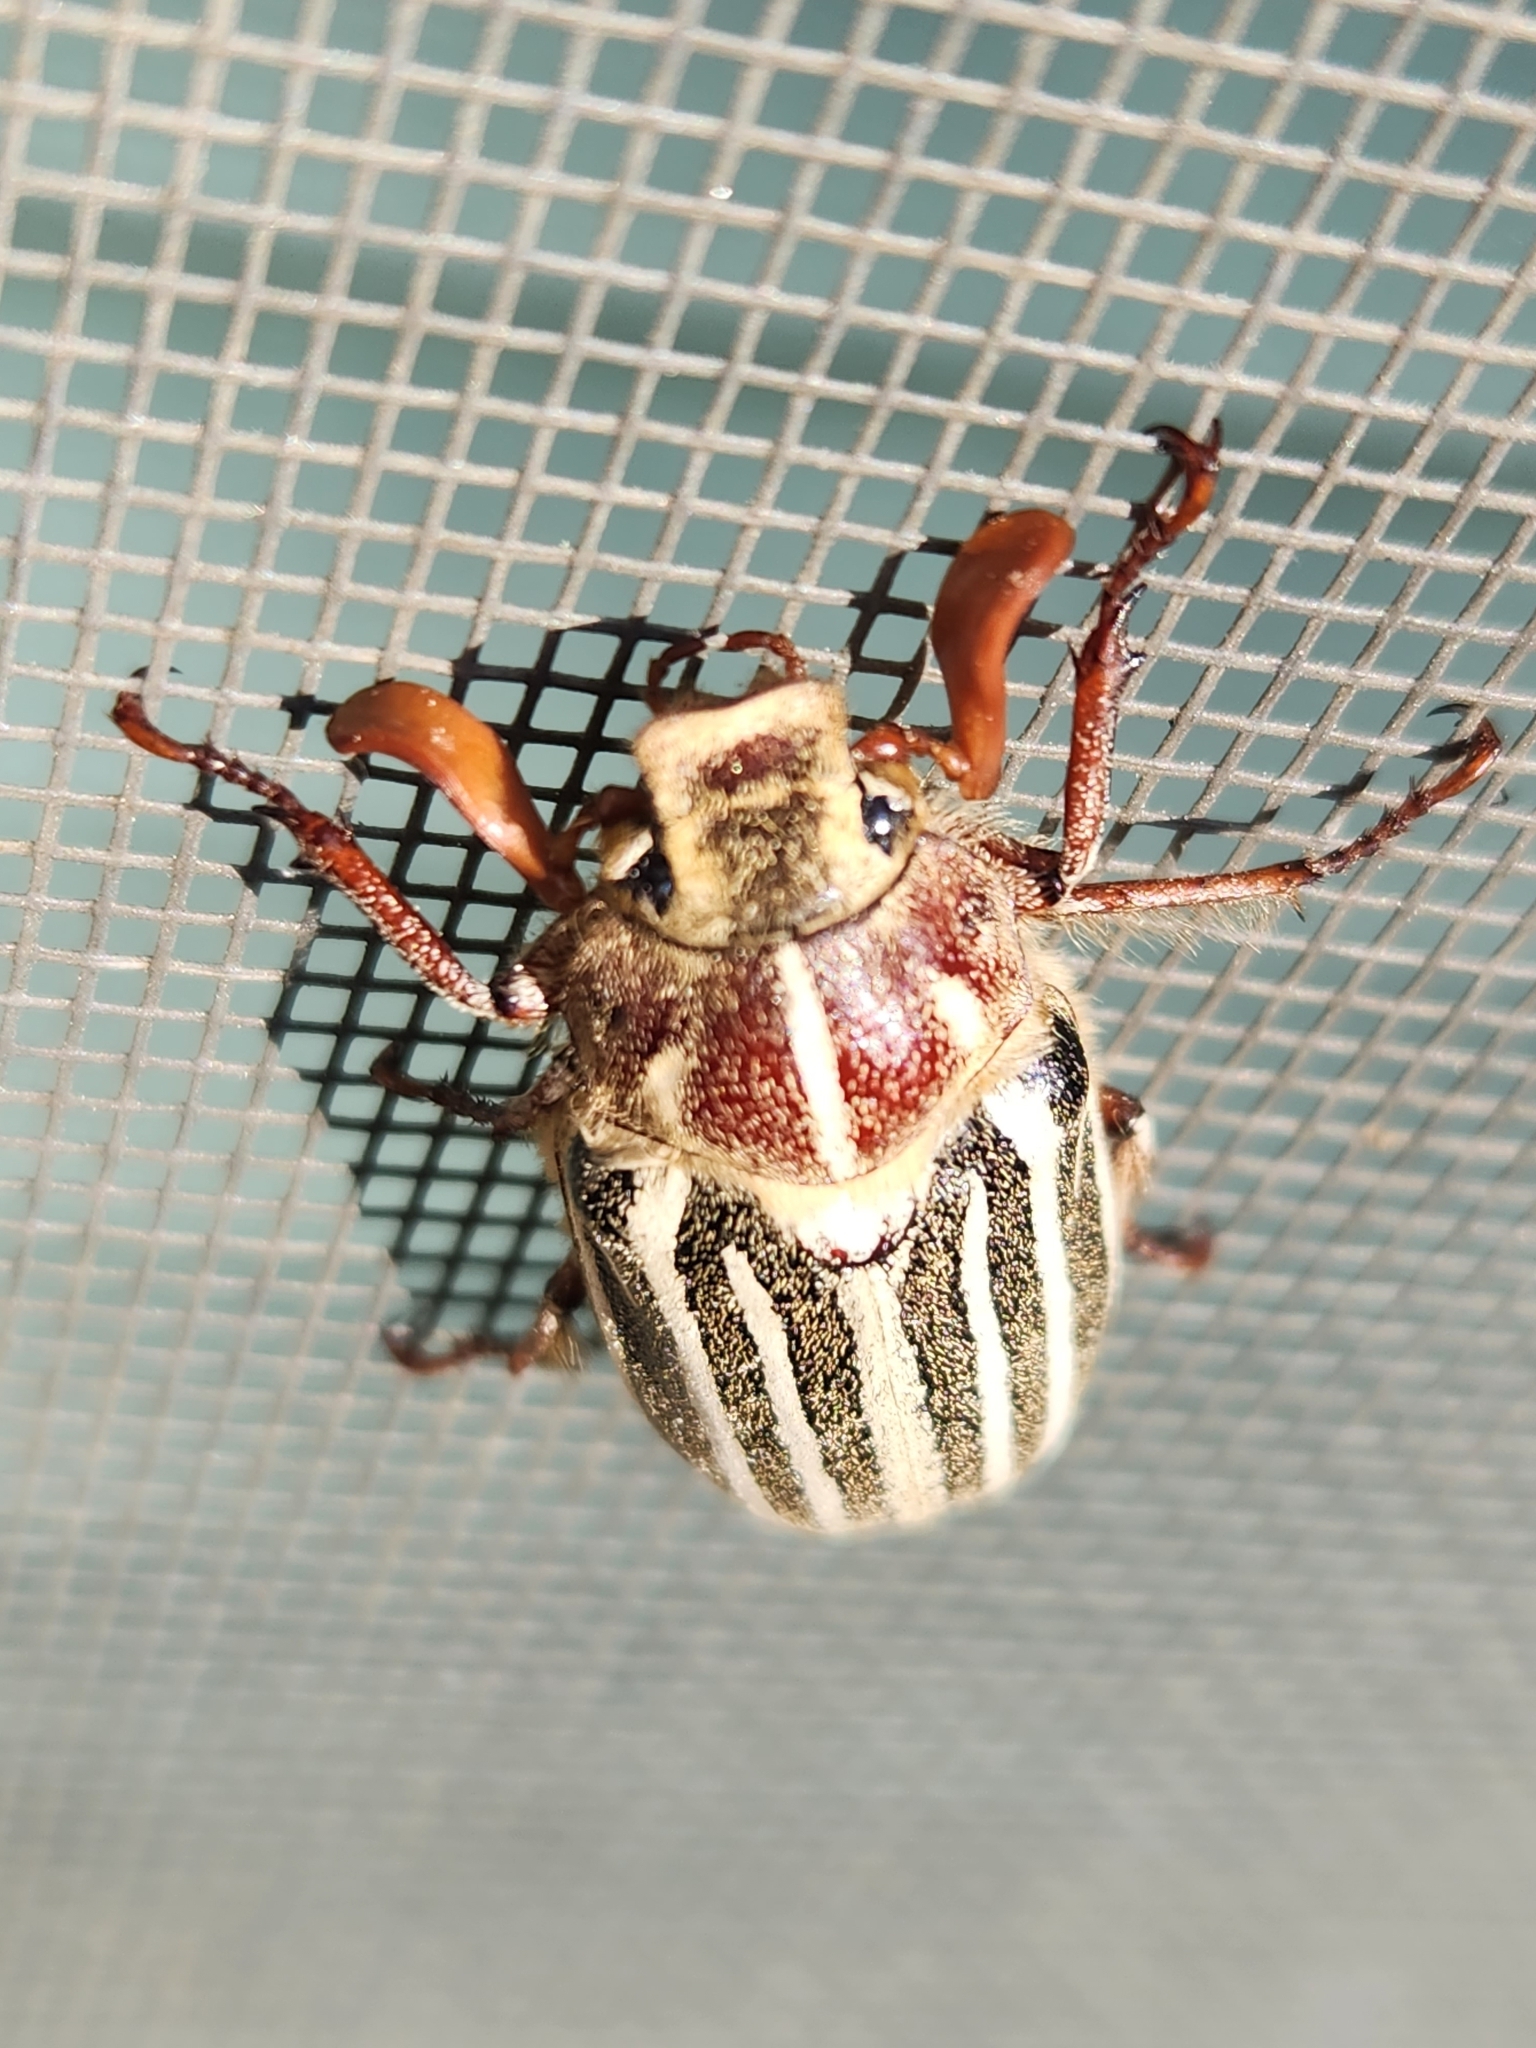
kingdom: Animalia
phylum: Arthropoda
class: Insecta
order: Coleoptera
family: Scarabaeidae
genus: Polyphylla
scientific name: Polyphylla decemlineata
